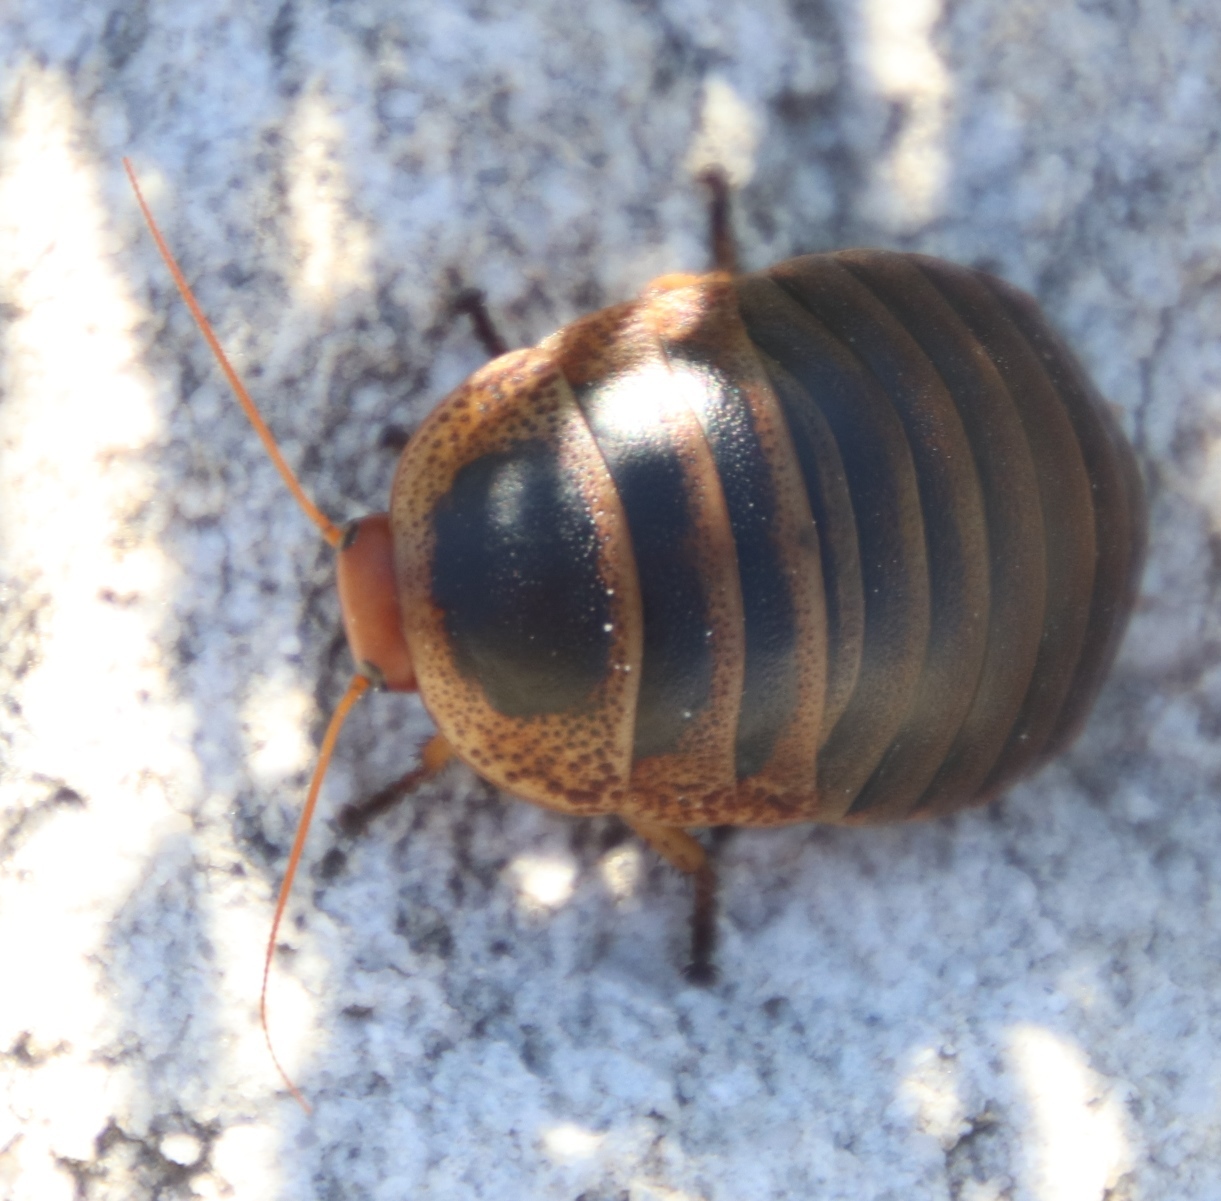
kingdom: Animalia
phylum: Arthropoda
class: Insecta
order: Blattodea
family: Blaberidae
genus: Aptera
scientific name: Aptera fusca
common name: Cape mountain cockroach
